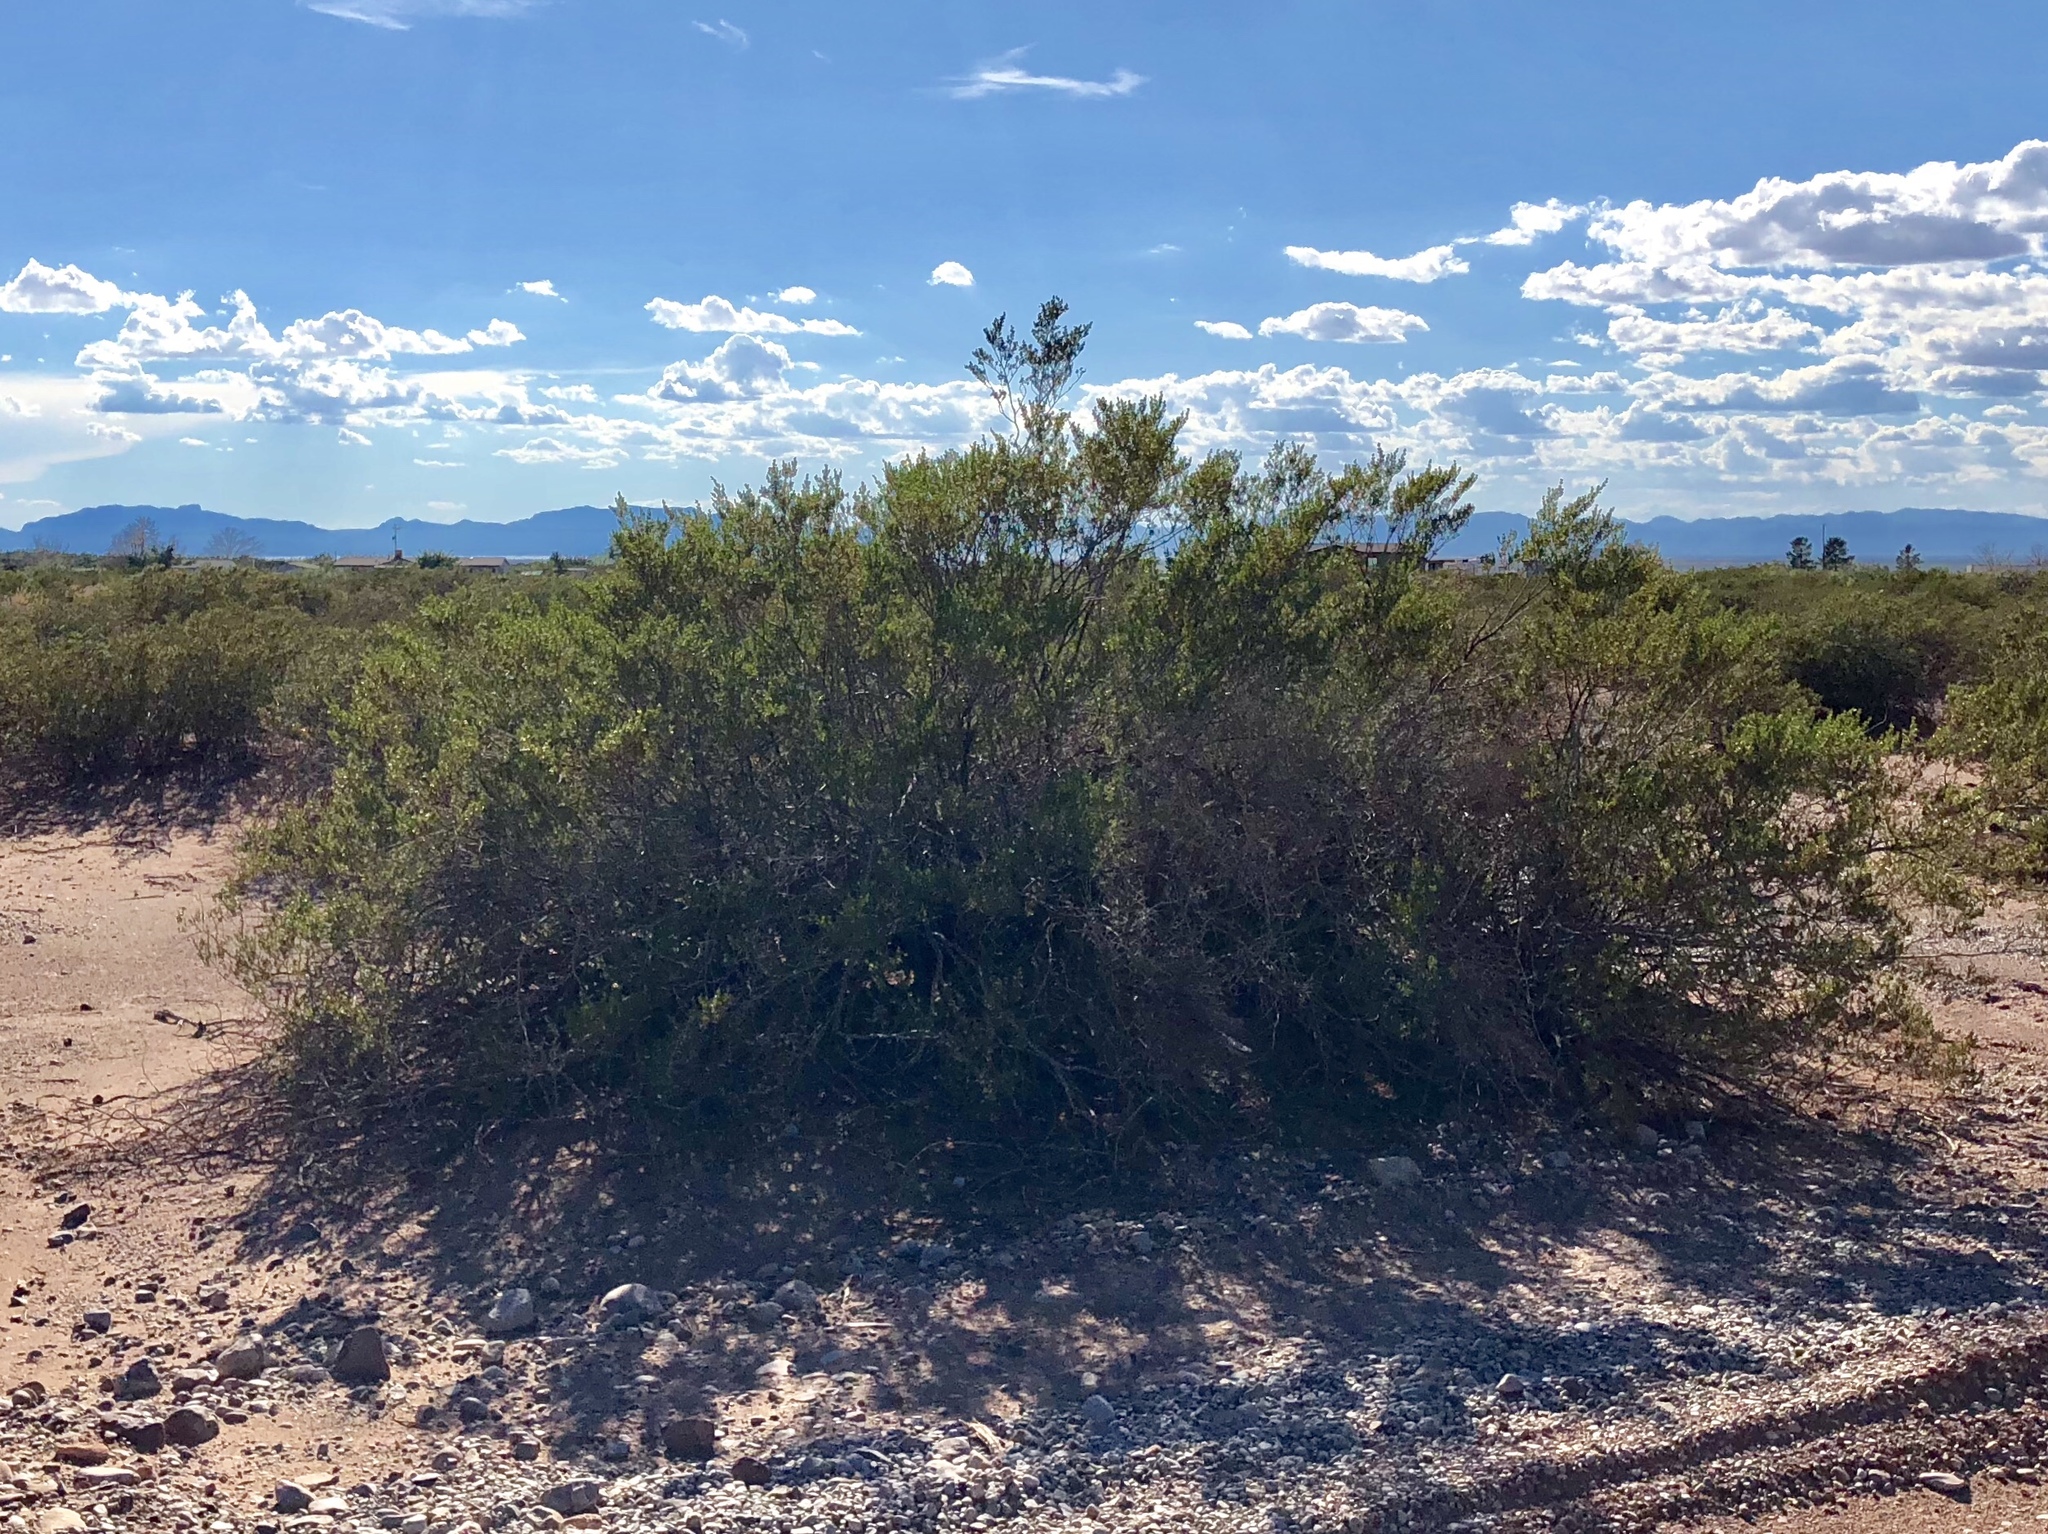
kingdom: Plantae
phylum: Tracheophyta
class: Magnoliopsida
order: Zygophyllales
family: Zygophyllaceae
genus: Larrea
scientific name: Larrea tridentata
